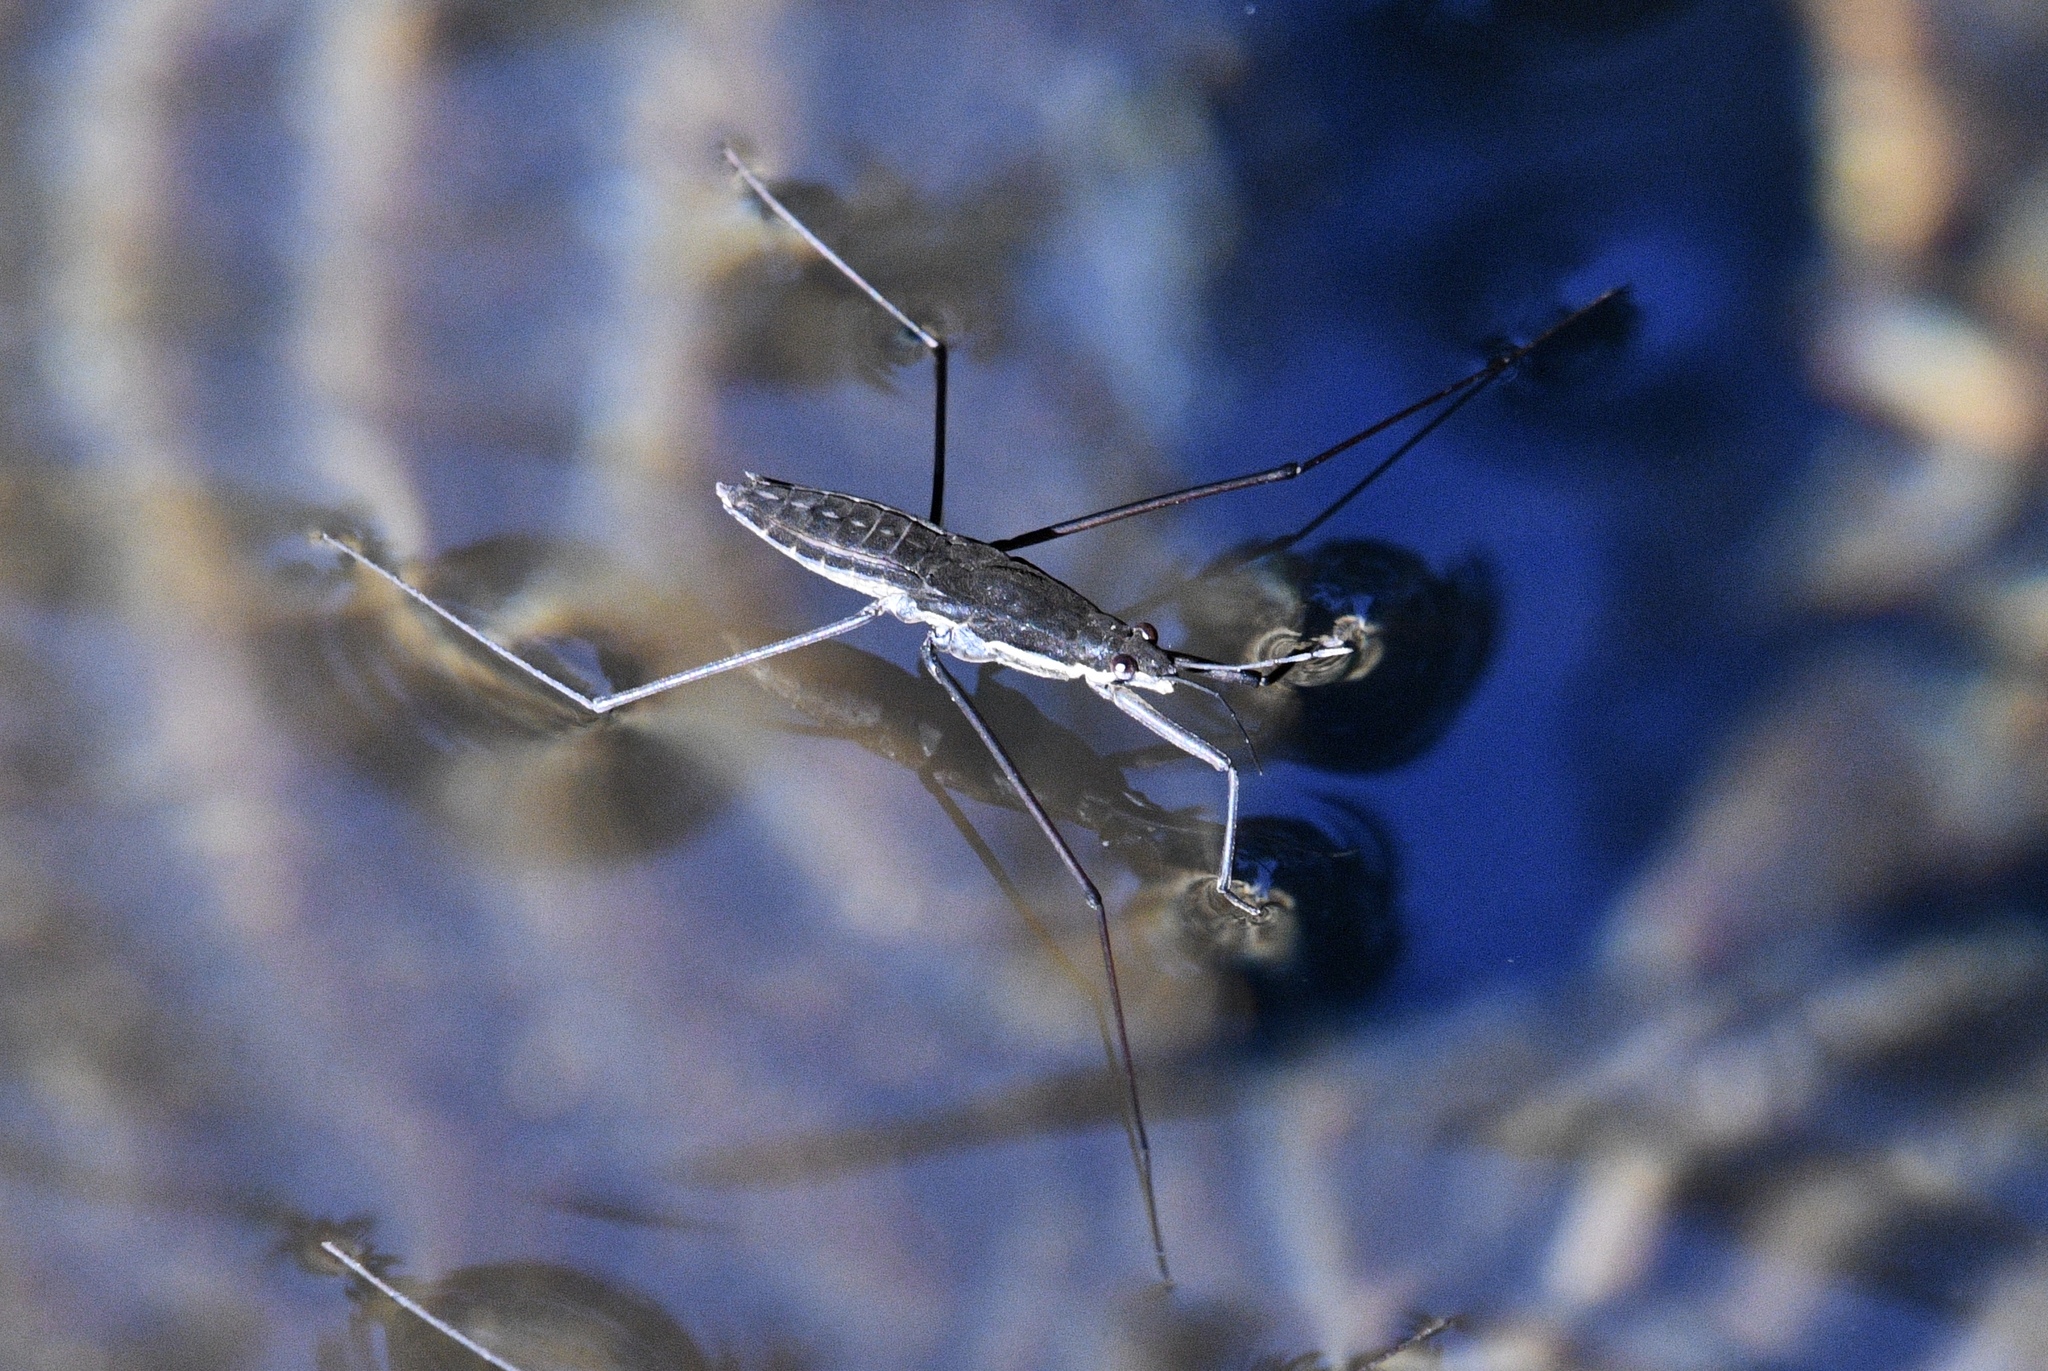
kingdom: Animalia
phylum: Arthropoda
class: Insecta
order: Hemiptera
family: Gerridae
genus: Aquarius
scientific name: Aquarius remigis
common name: Common water strider
